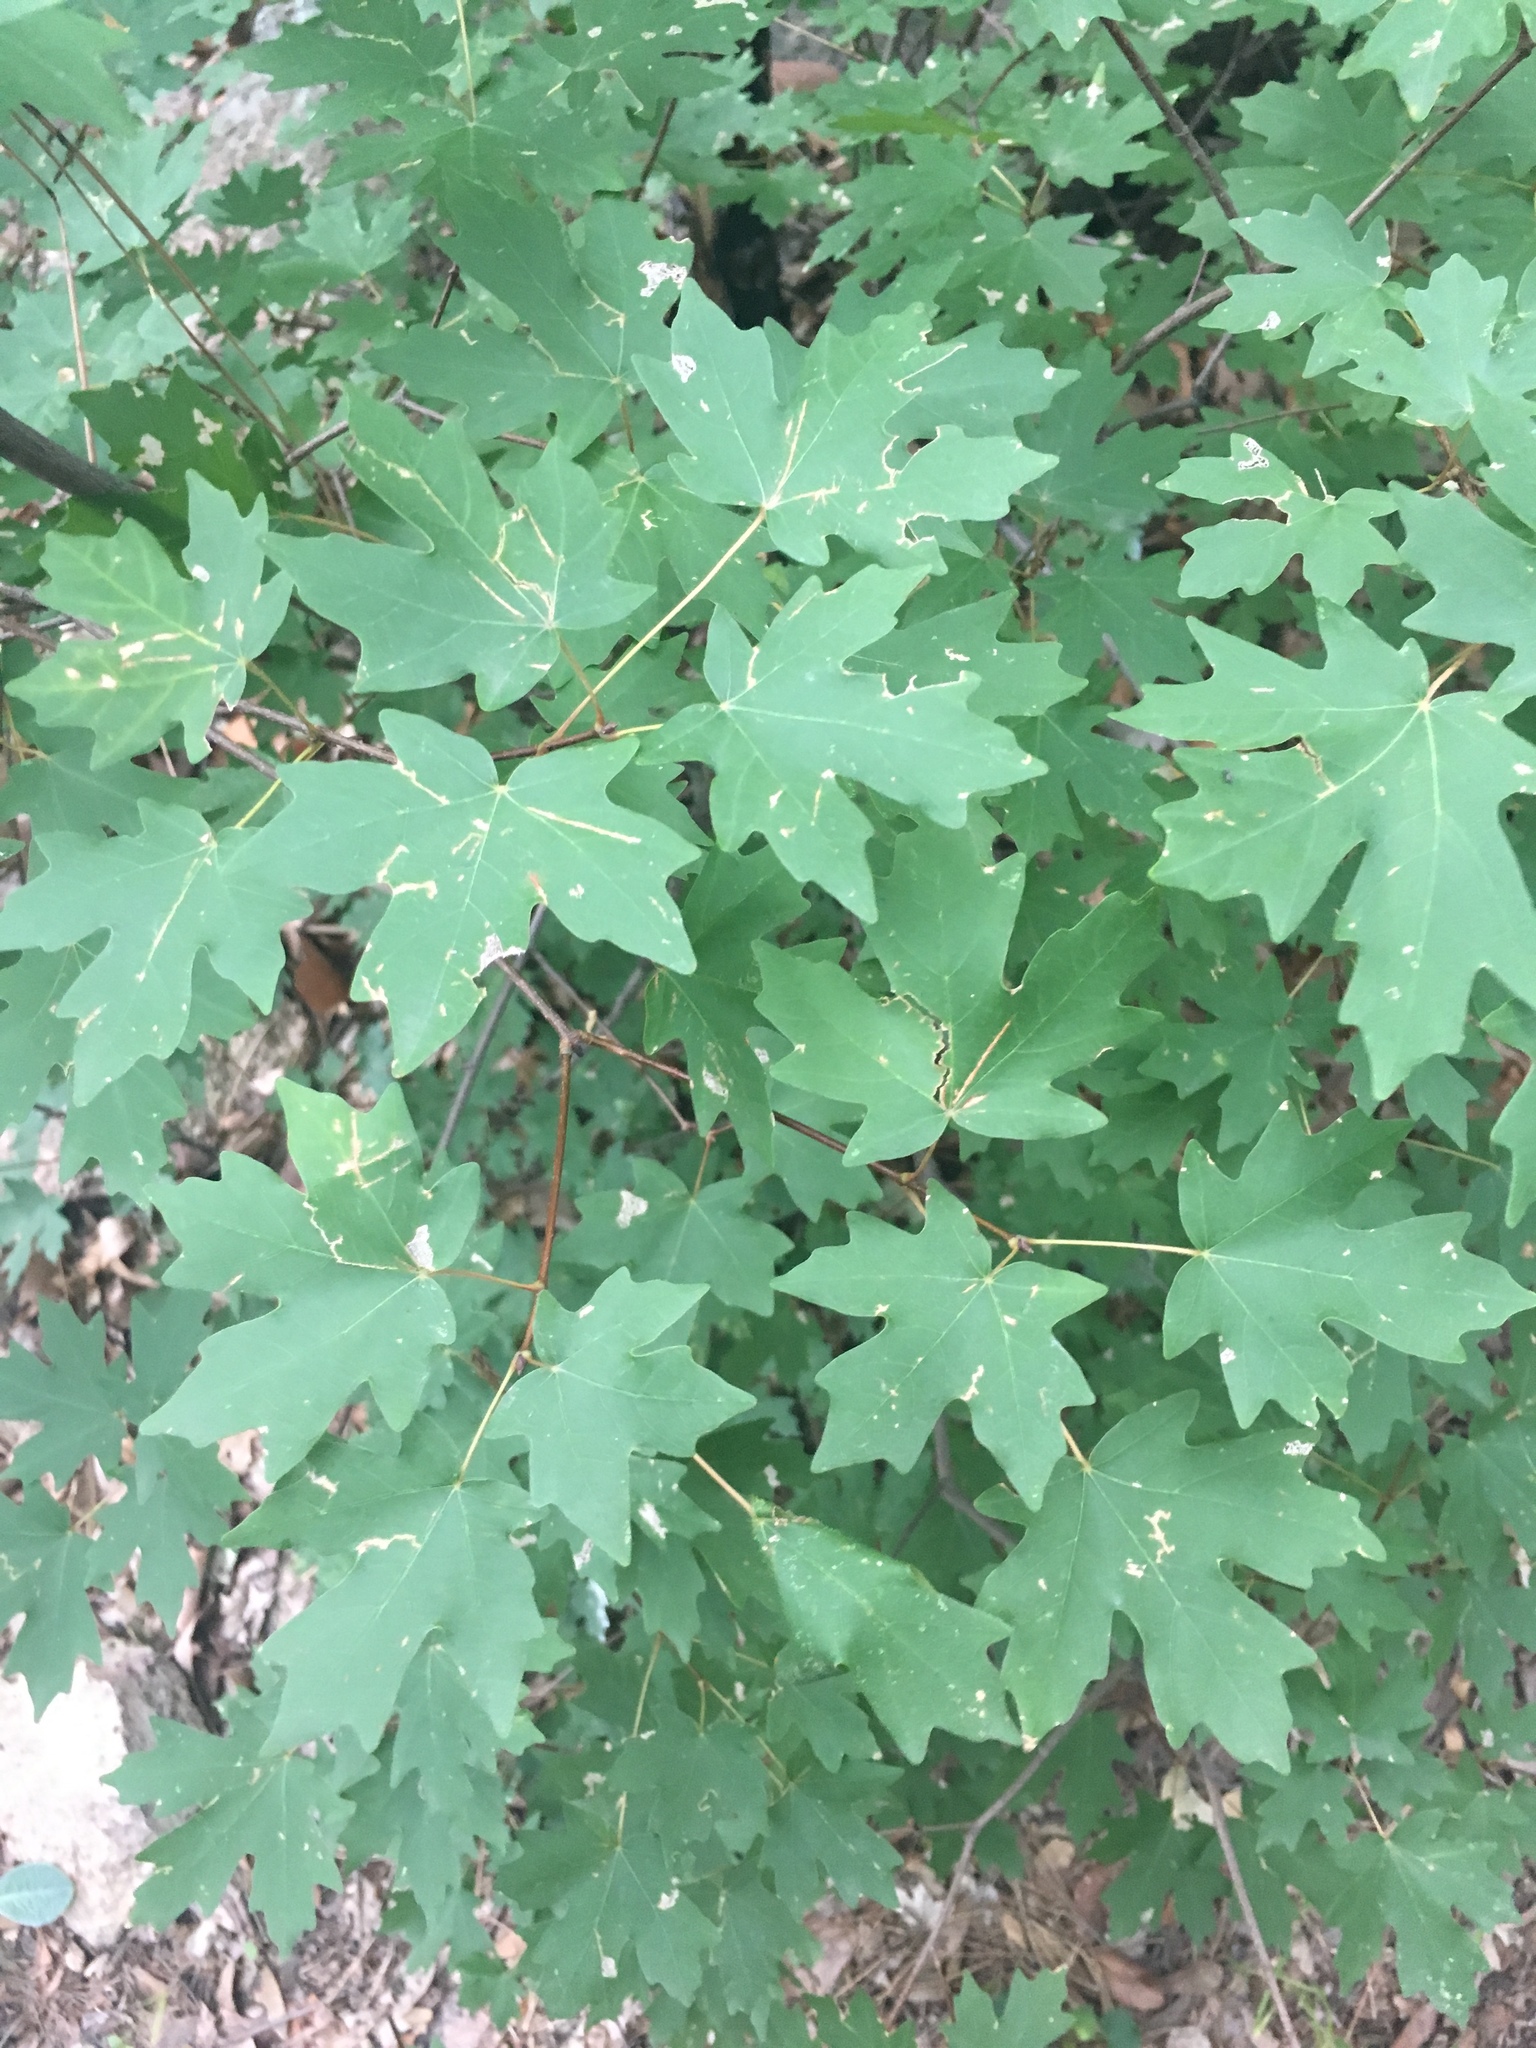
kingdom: Plantae
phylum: Tracheophyta
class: Magnoliopsida
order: Sapindales
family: Sapindaceae
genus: Acer
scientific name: Acer grandidentatum
